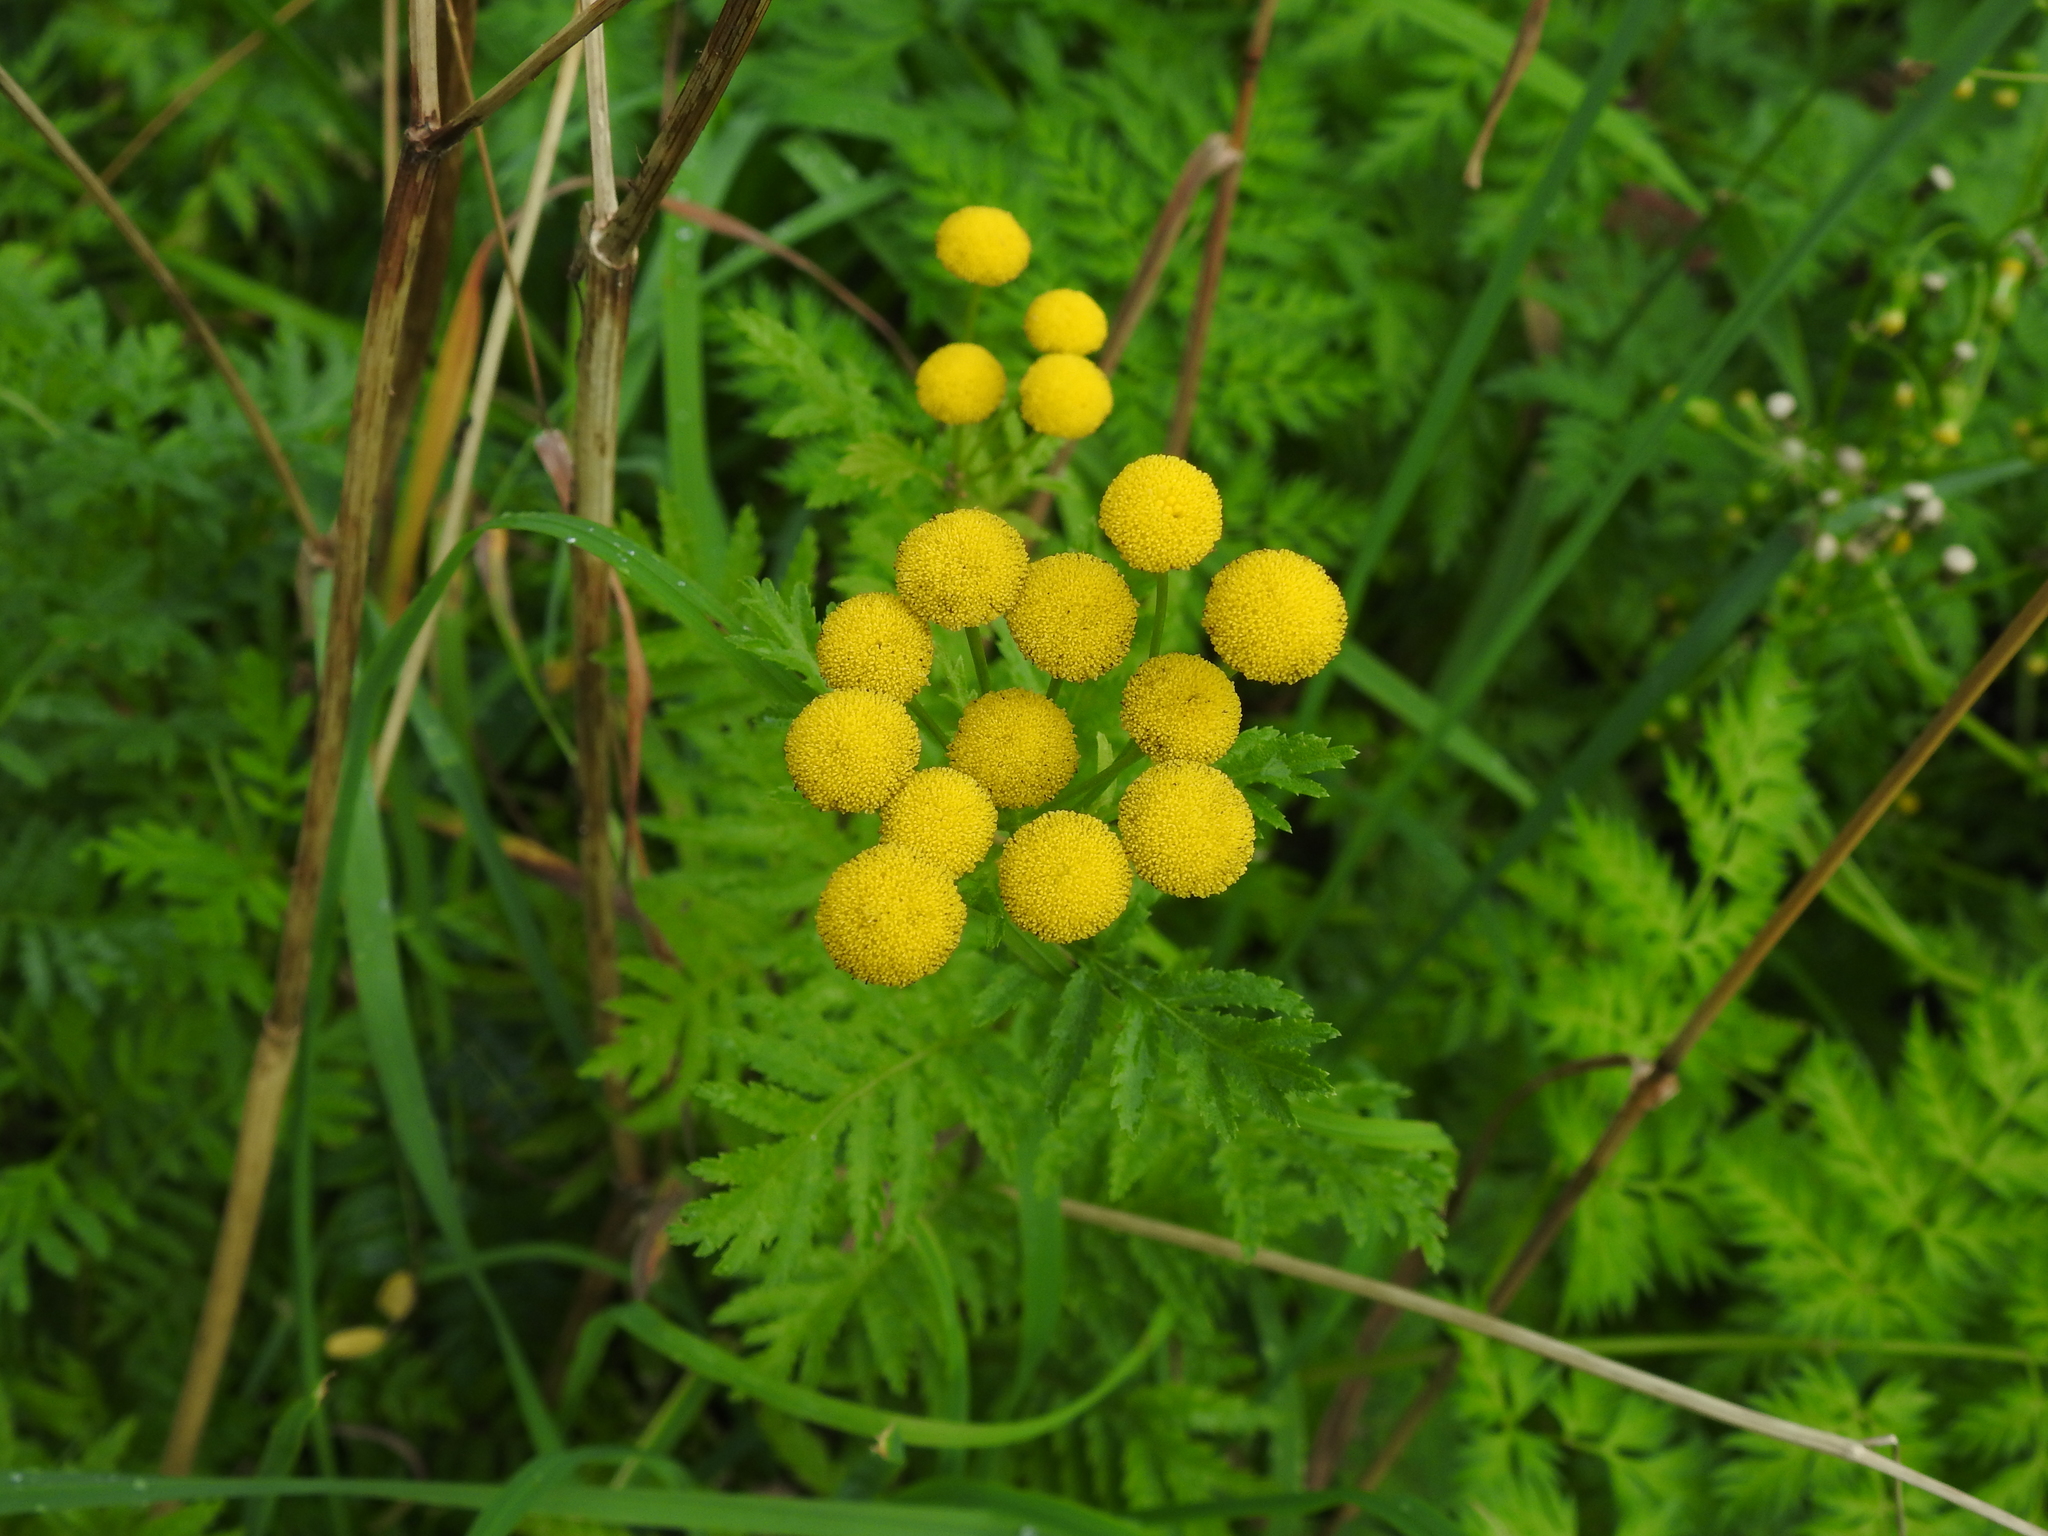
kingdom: Plantae
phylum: Tracheophyta
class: Magnoliopsida
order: Asterales
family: Asteraceae
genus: Tanacetum
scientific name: Tanacetum vulgare
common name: Common tansy
